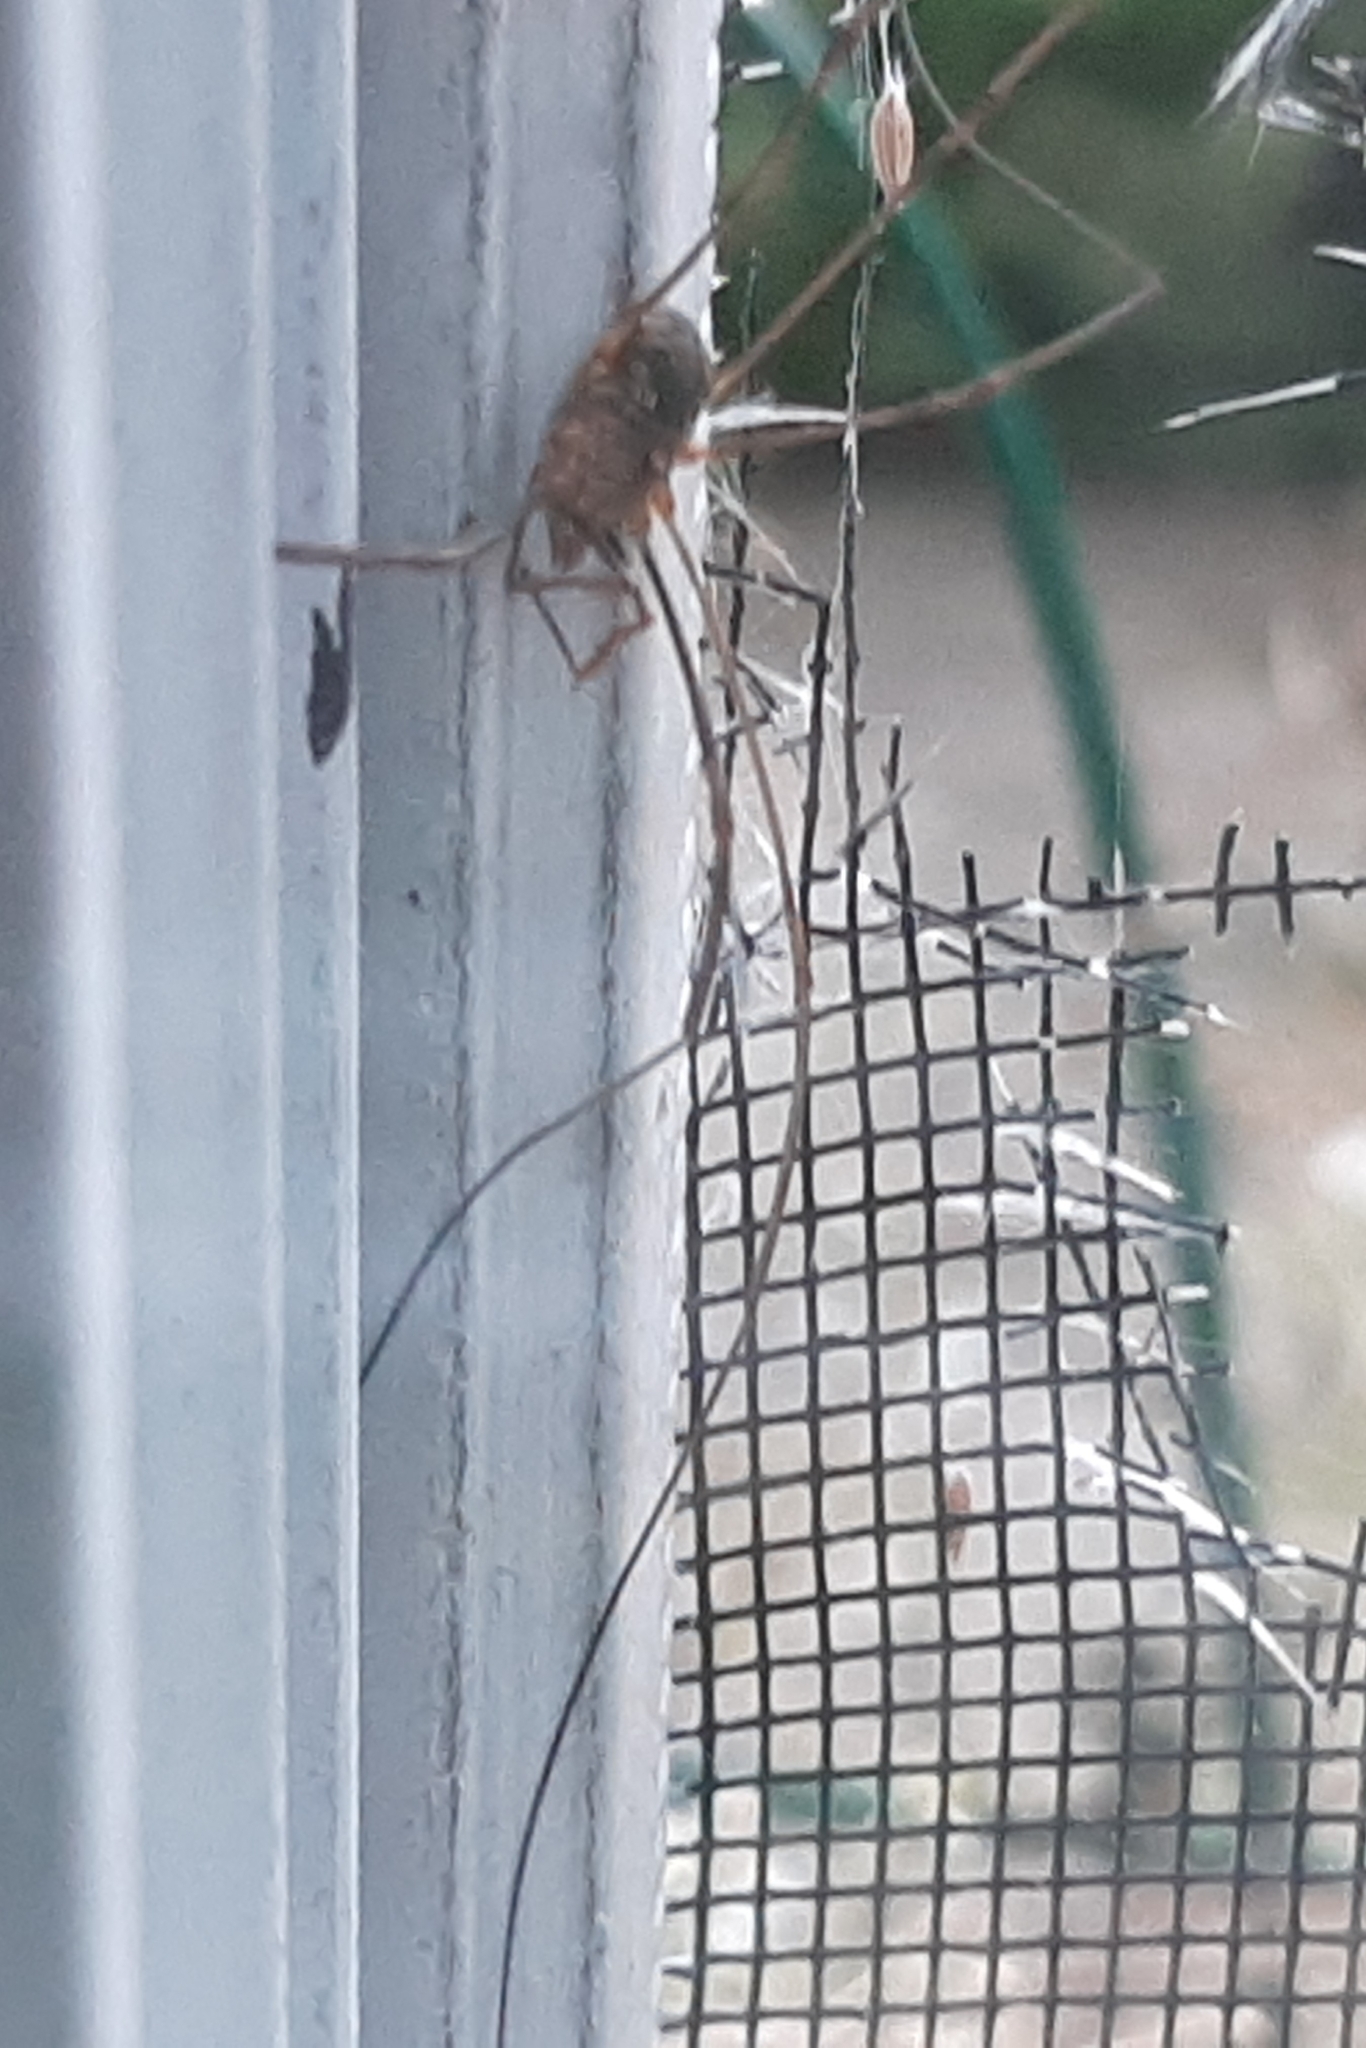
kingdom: Animalia
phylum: Arthropoda
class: Arachnida
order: Opiliones
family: Phalangiidae
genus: Phalangium
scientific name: Phalangium opilio
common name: Daddy longleg
